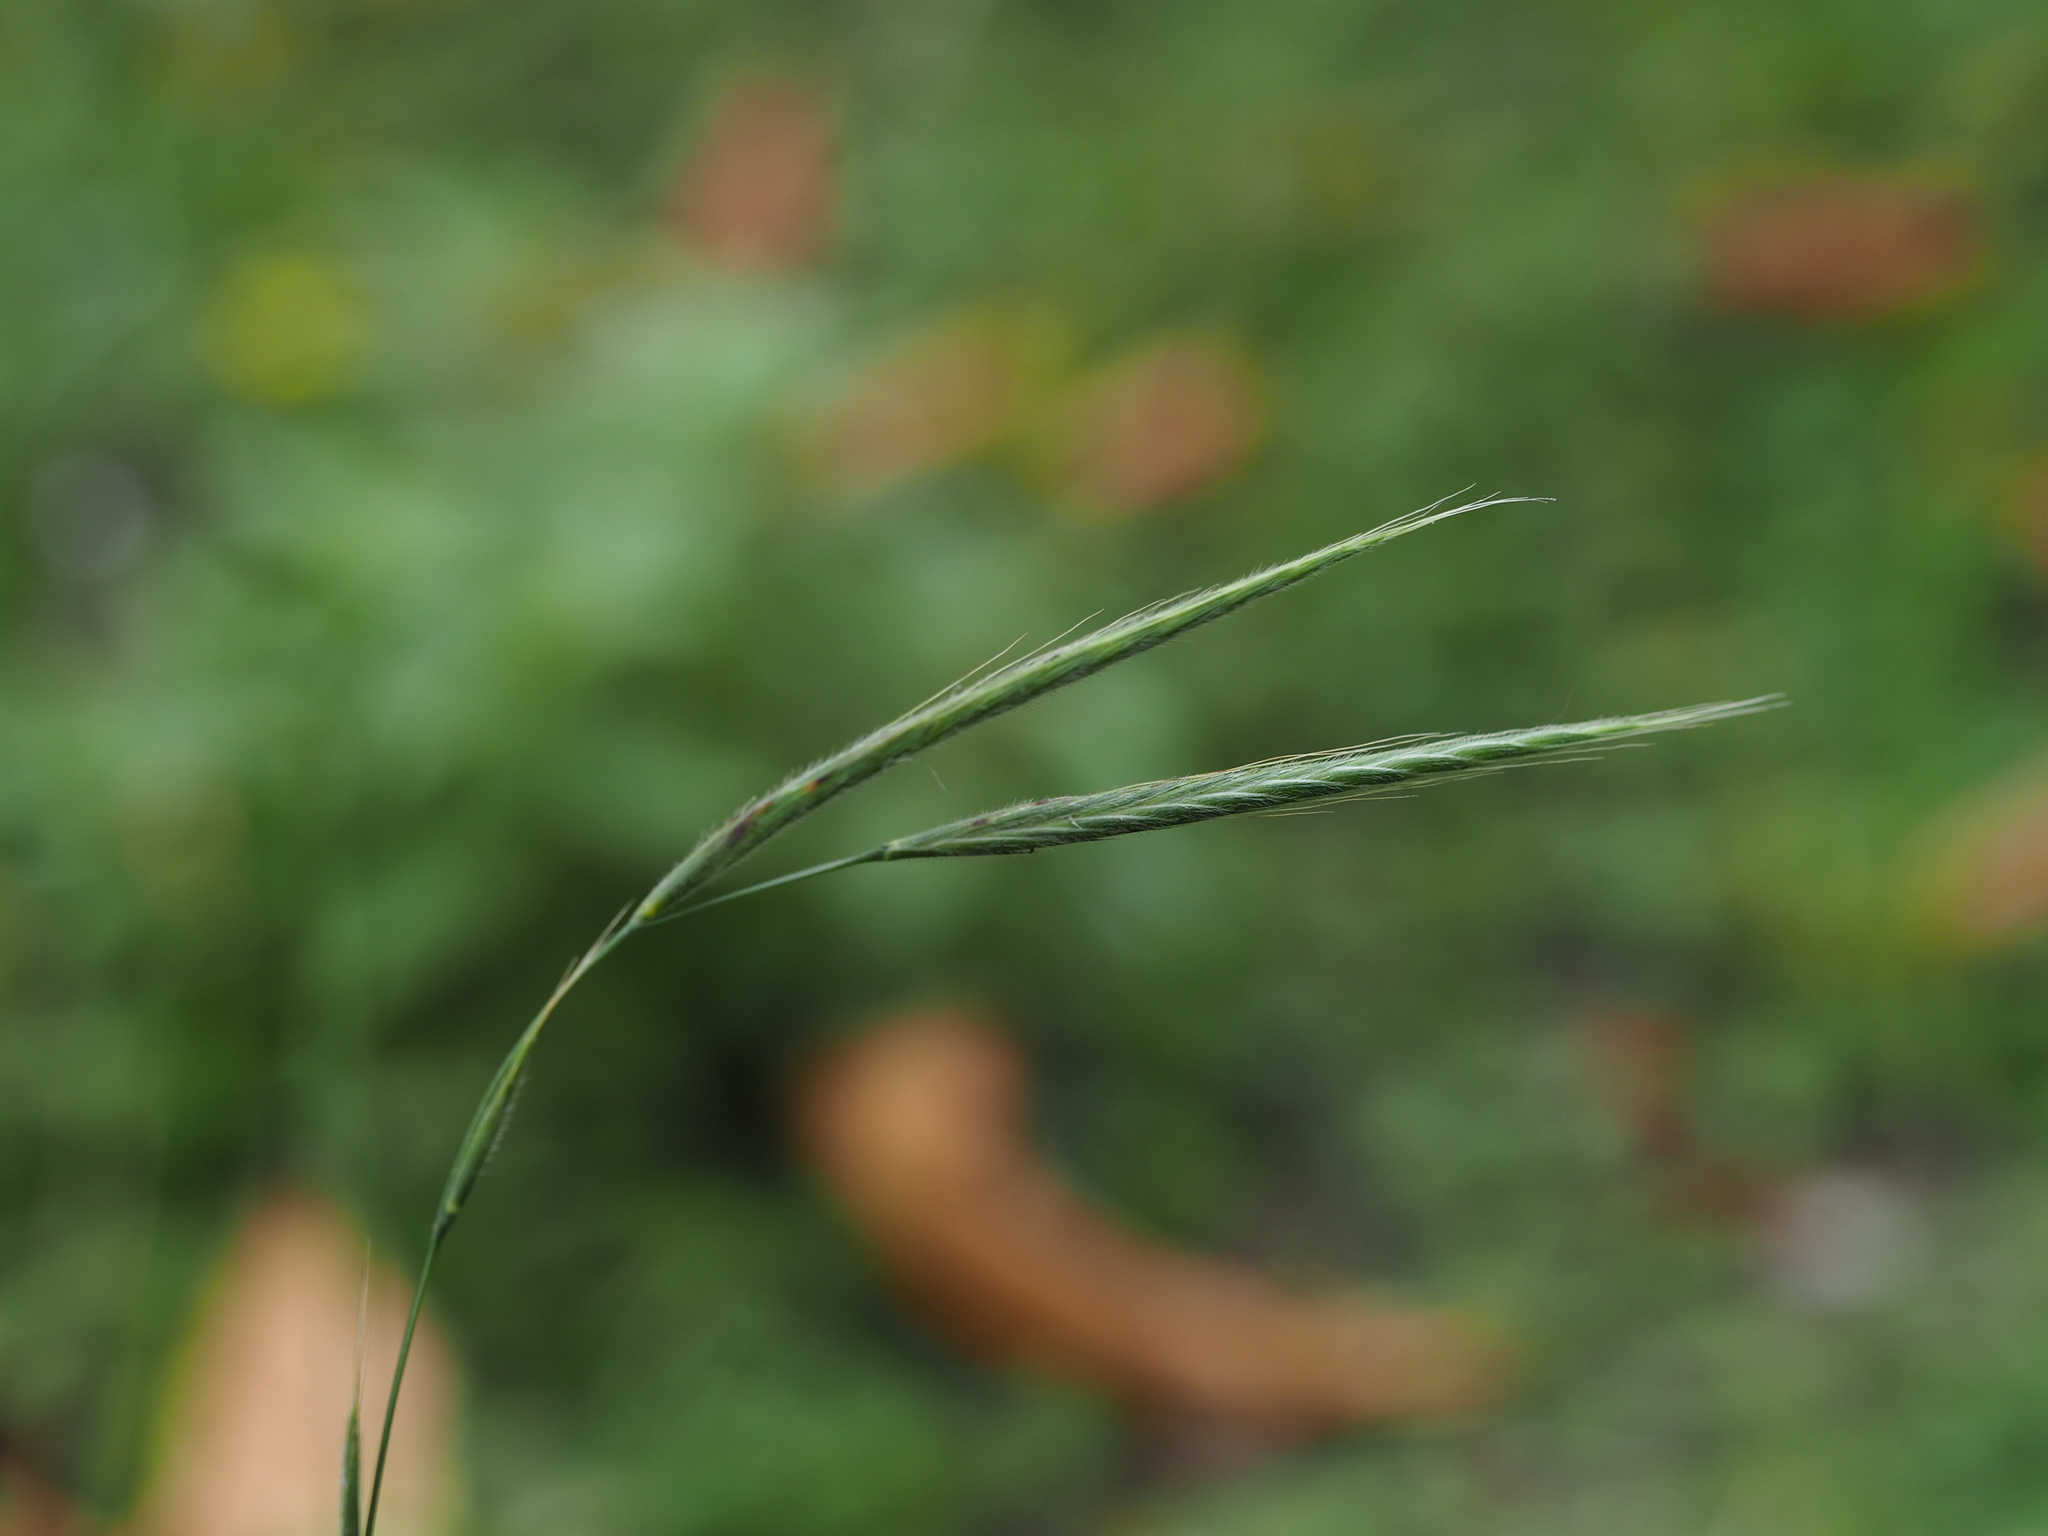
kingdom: Plantae
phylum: Tracheophyta
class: Liliopsida
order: Poales
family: Poaceae
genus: Brachypodium
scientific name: Brachypodium sylvaticum
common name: False-brome
